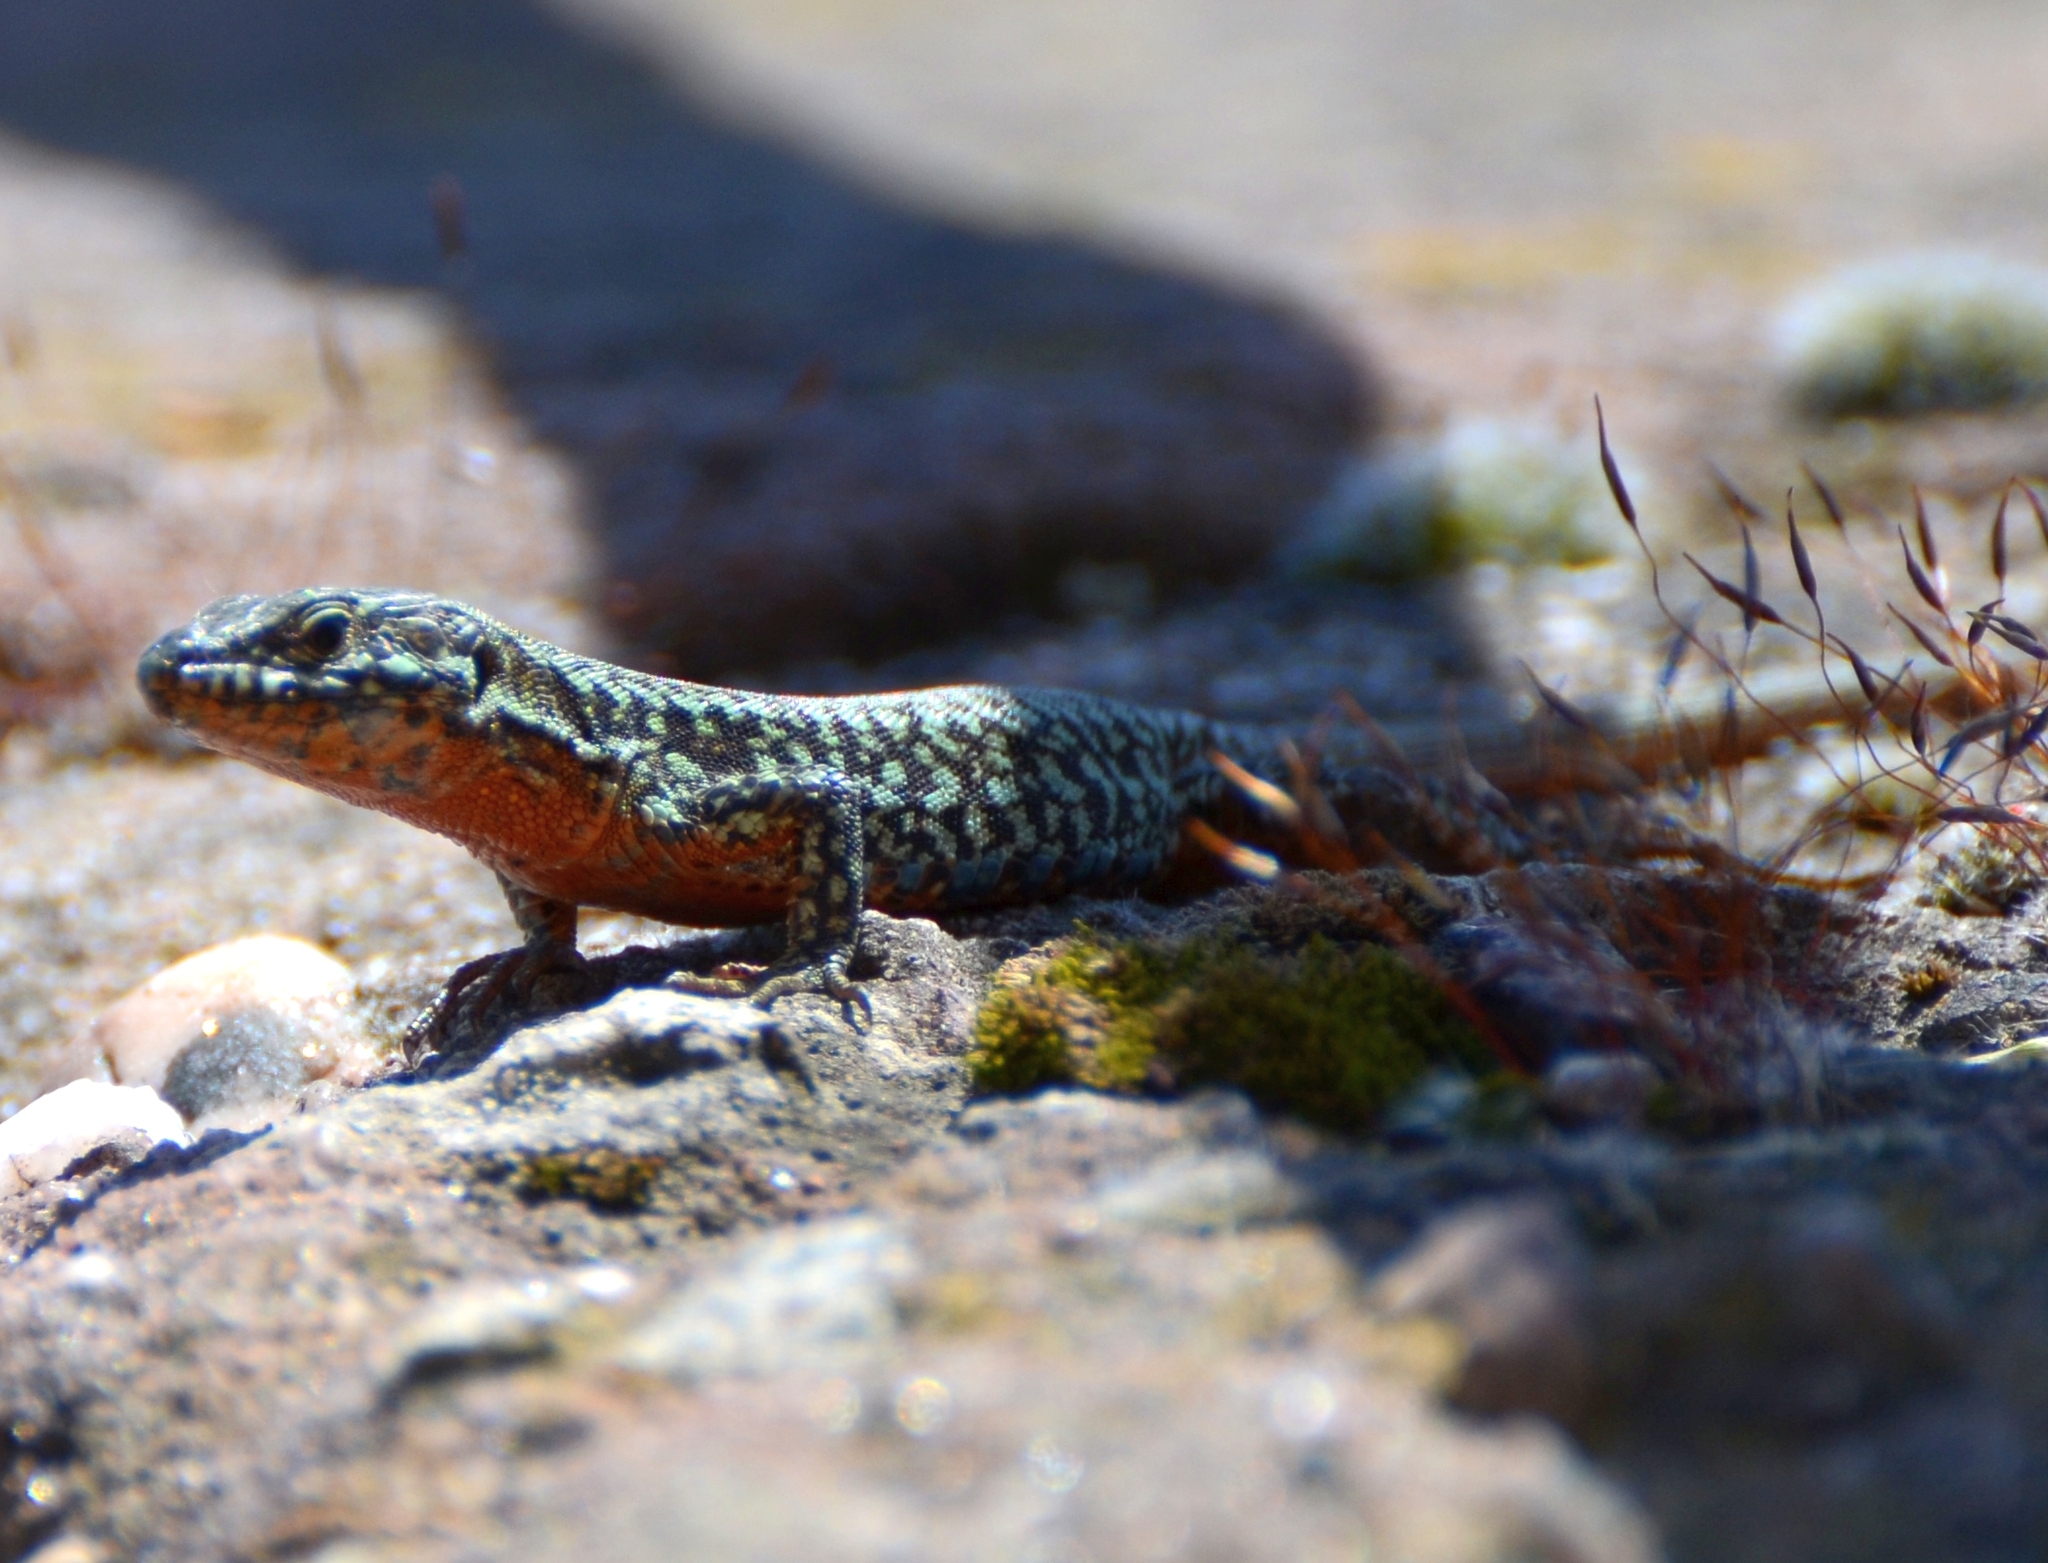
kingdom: Animalia
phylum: Chordata
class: Squamata
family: Lacertidae
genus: Podarcis
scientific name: Podarcis muralis
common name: Common wall lizard
